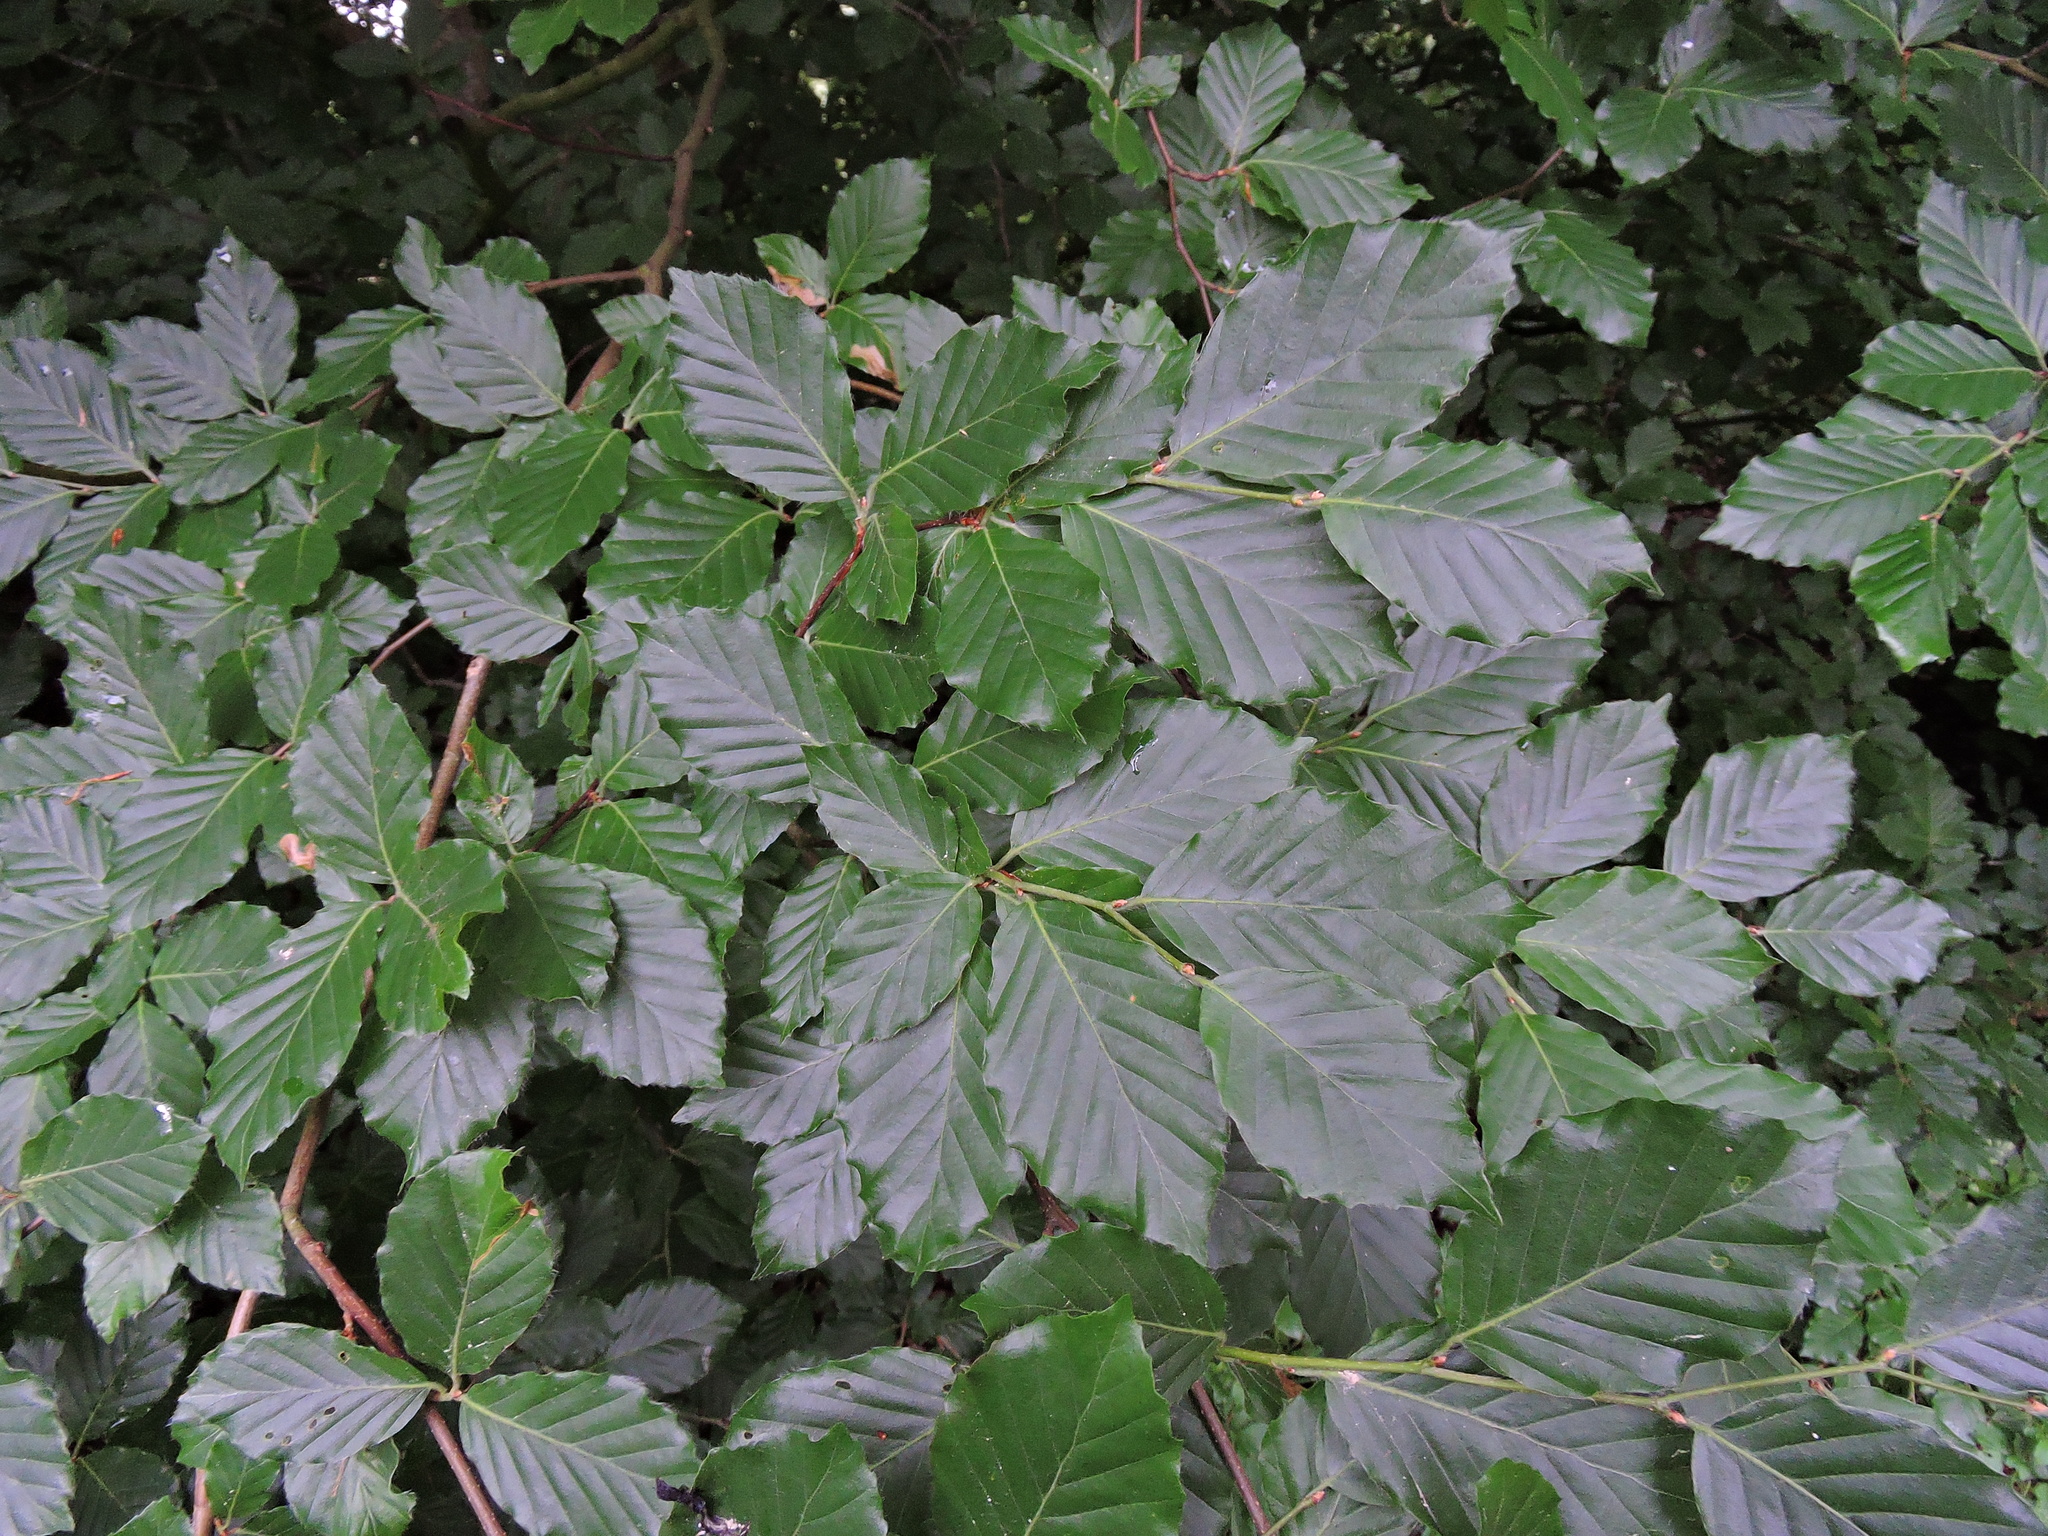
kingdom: Plantae
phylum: Tracheophyta
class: Magnoliopsida
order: Fagales
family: Fagaceae
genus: Fagus
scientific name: Fagus sylvatica
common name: Beech
